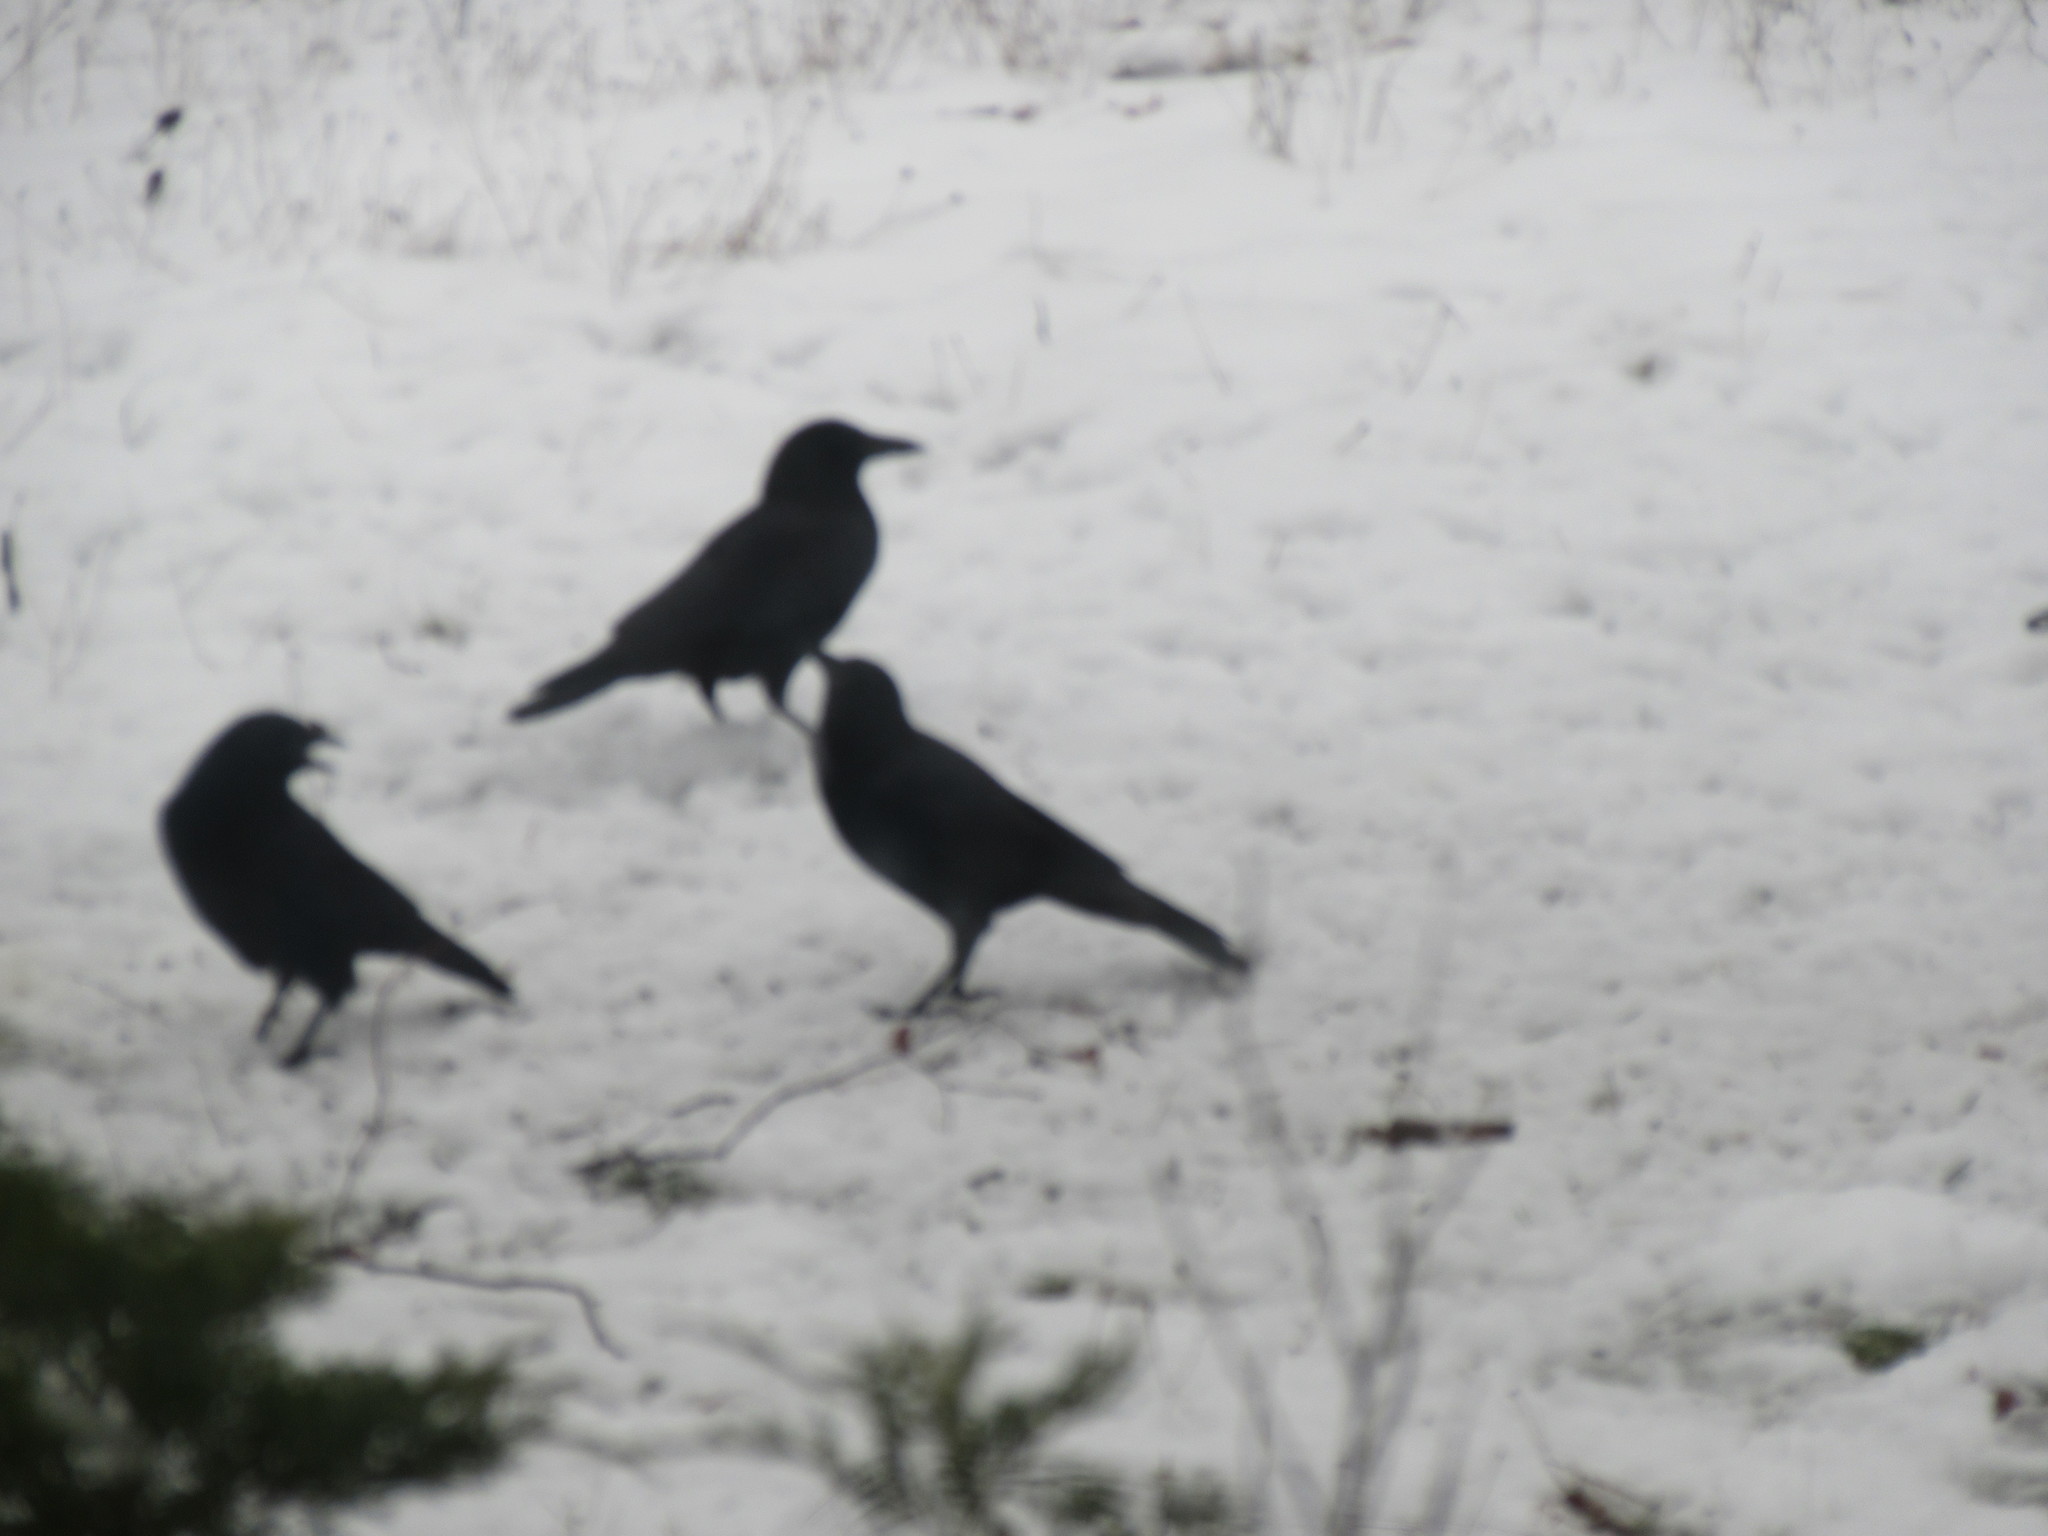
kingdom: Animalia
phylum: Chordata
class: Aves
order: Passeriformes
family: Corvidae
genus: Corvus
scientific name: Corvus brachyrhynchos
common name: American crow
